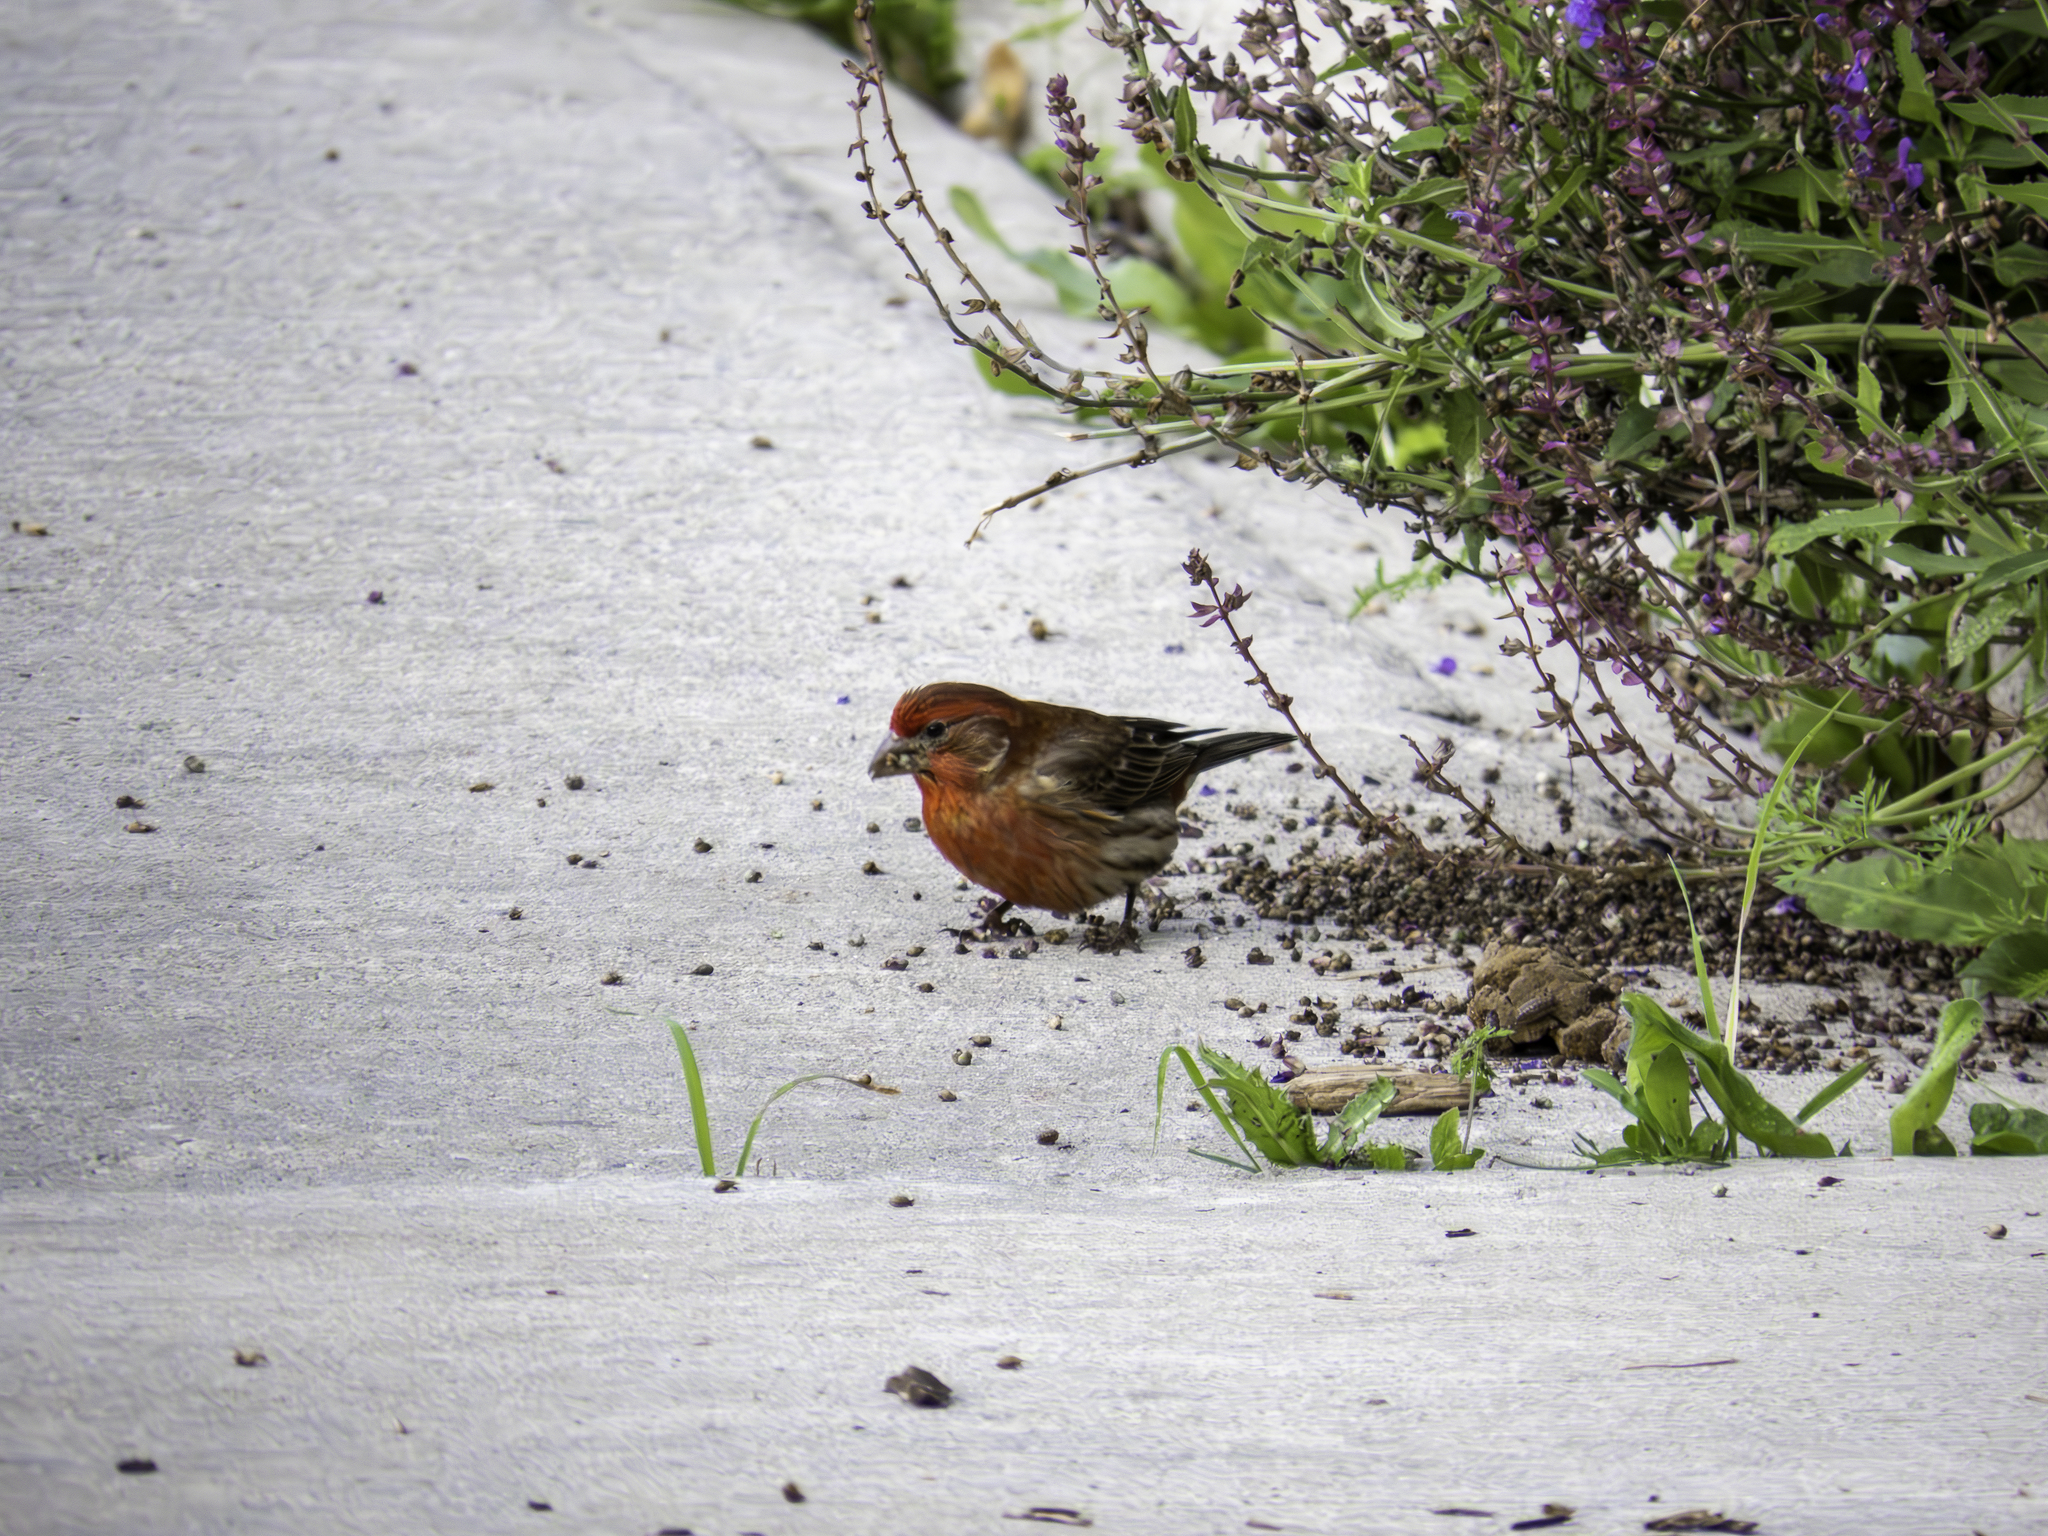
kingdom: Animalia
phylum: Chordata
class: Aves
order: Passeriformes
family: Fringillidae
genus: Haemorhous
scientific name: Haemorhous mexicanus
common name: House finch
